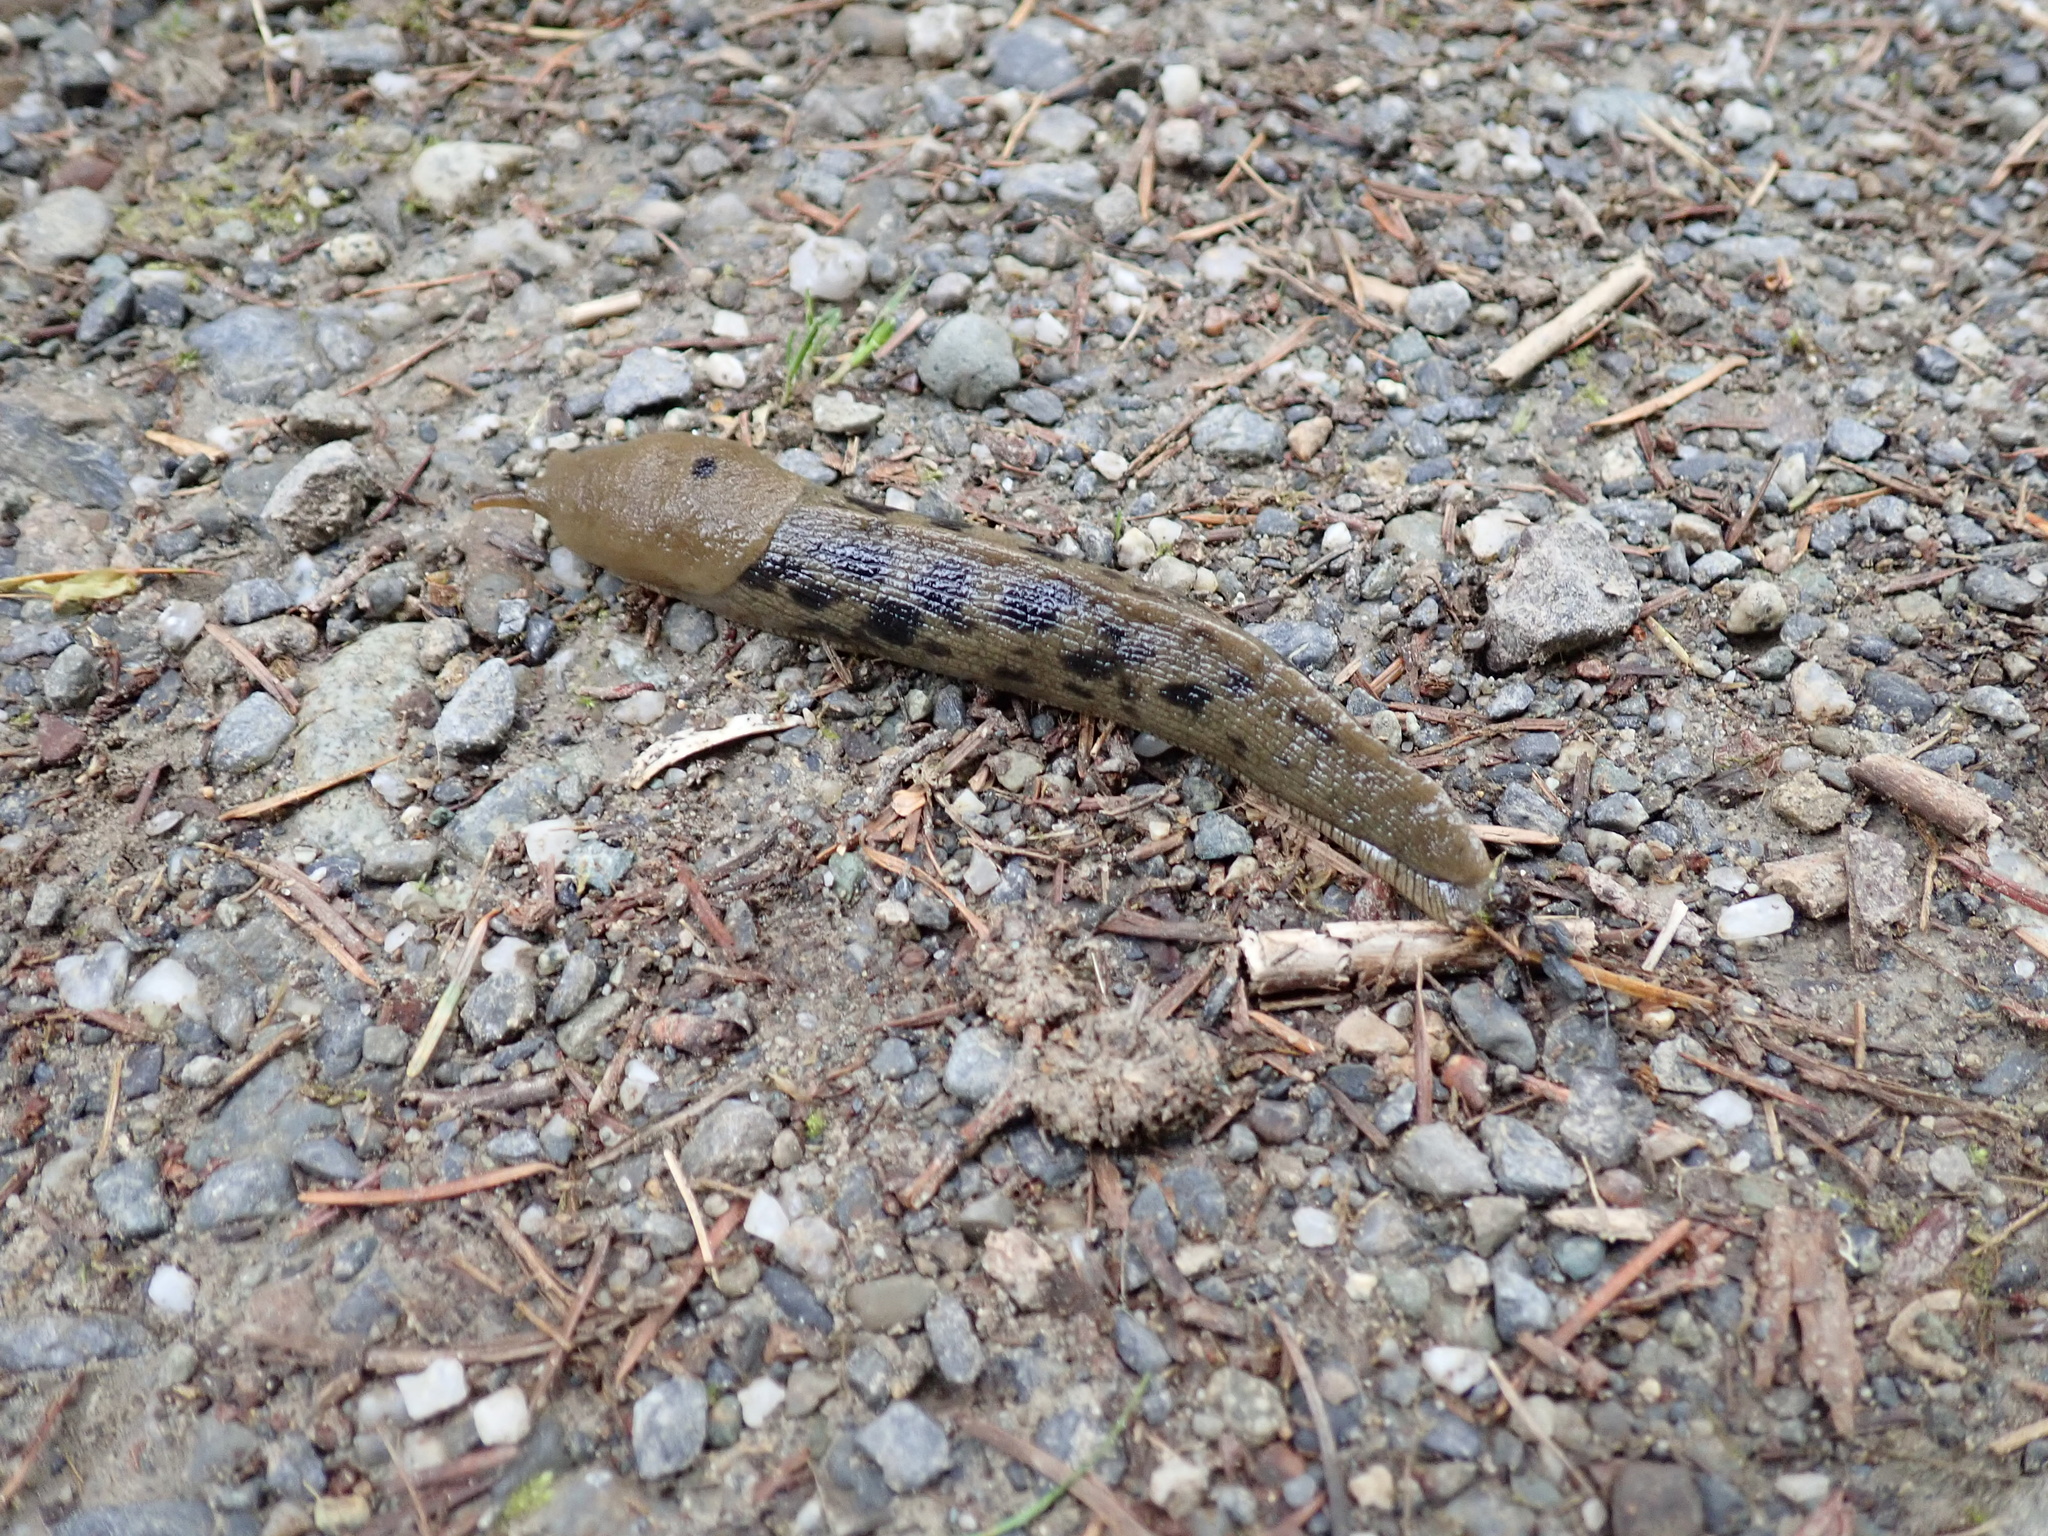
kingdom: Animalia
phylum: Mollusca
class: Gastropoda
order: Stylommatophora
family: Ariolimacidae
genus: Ariolimax
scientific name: Ariolimax columbianus
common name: Pacific banana slug
